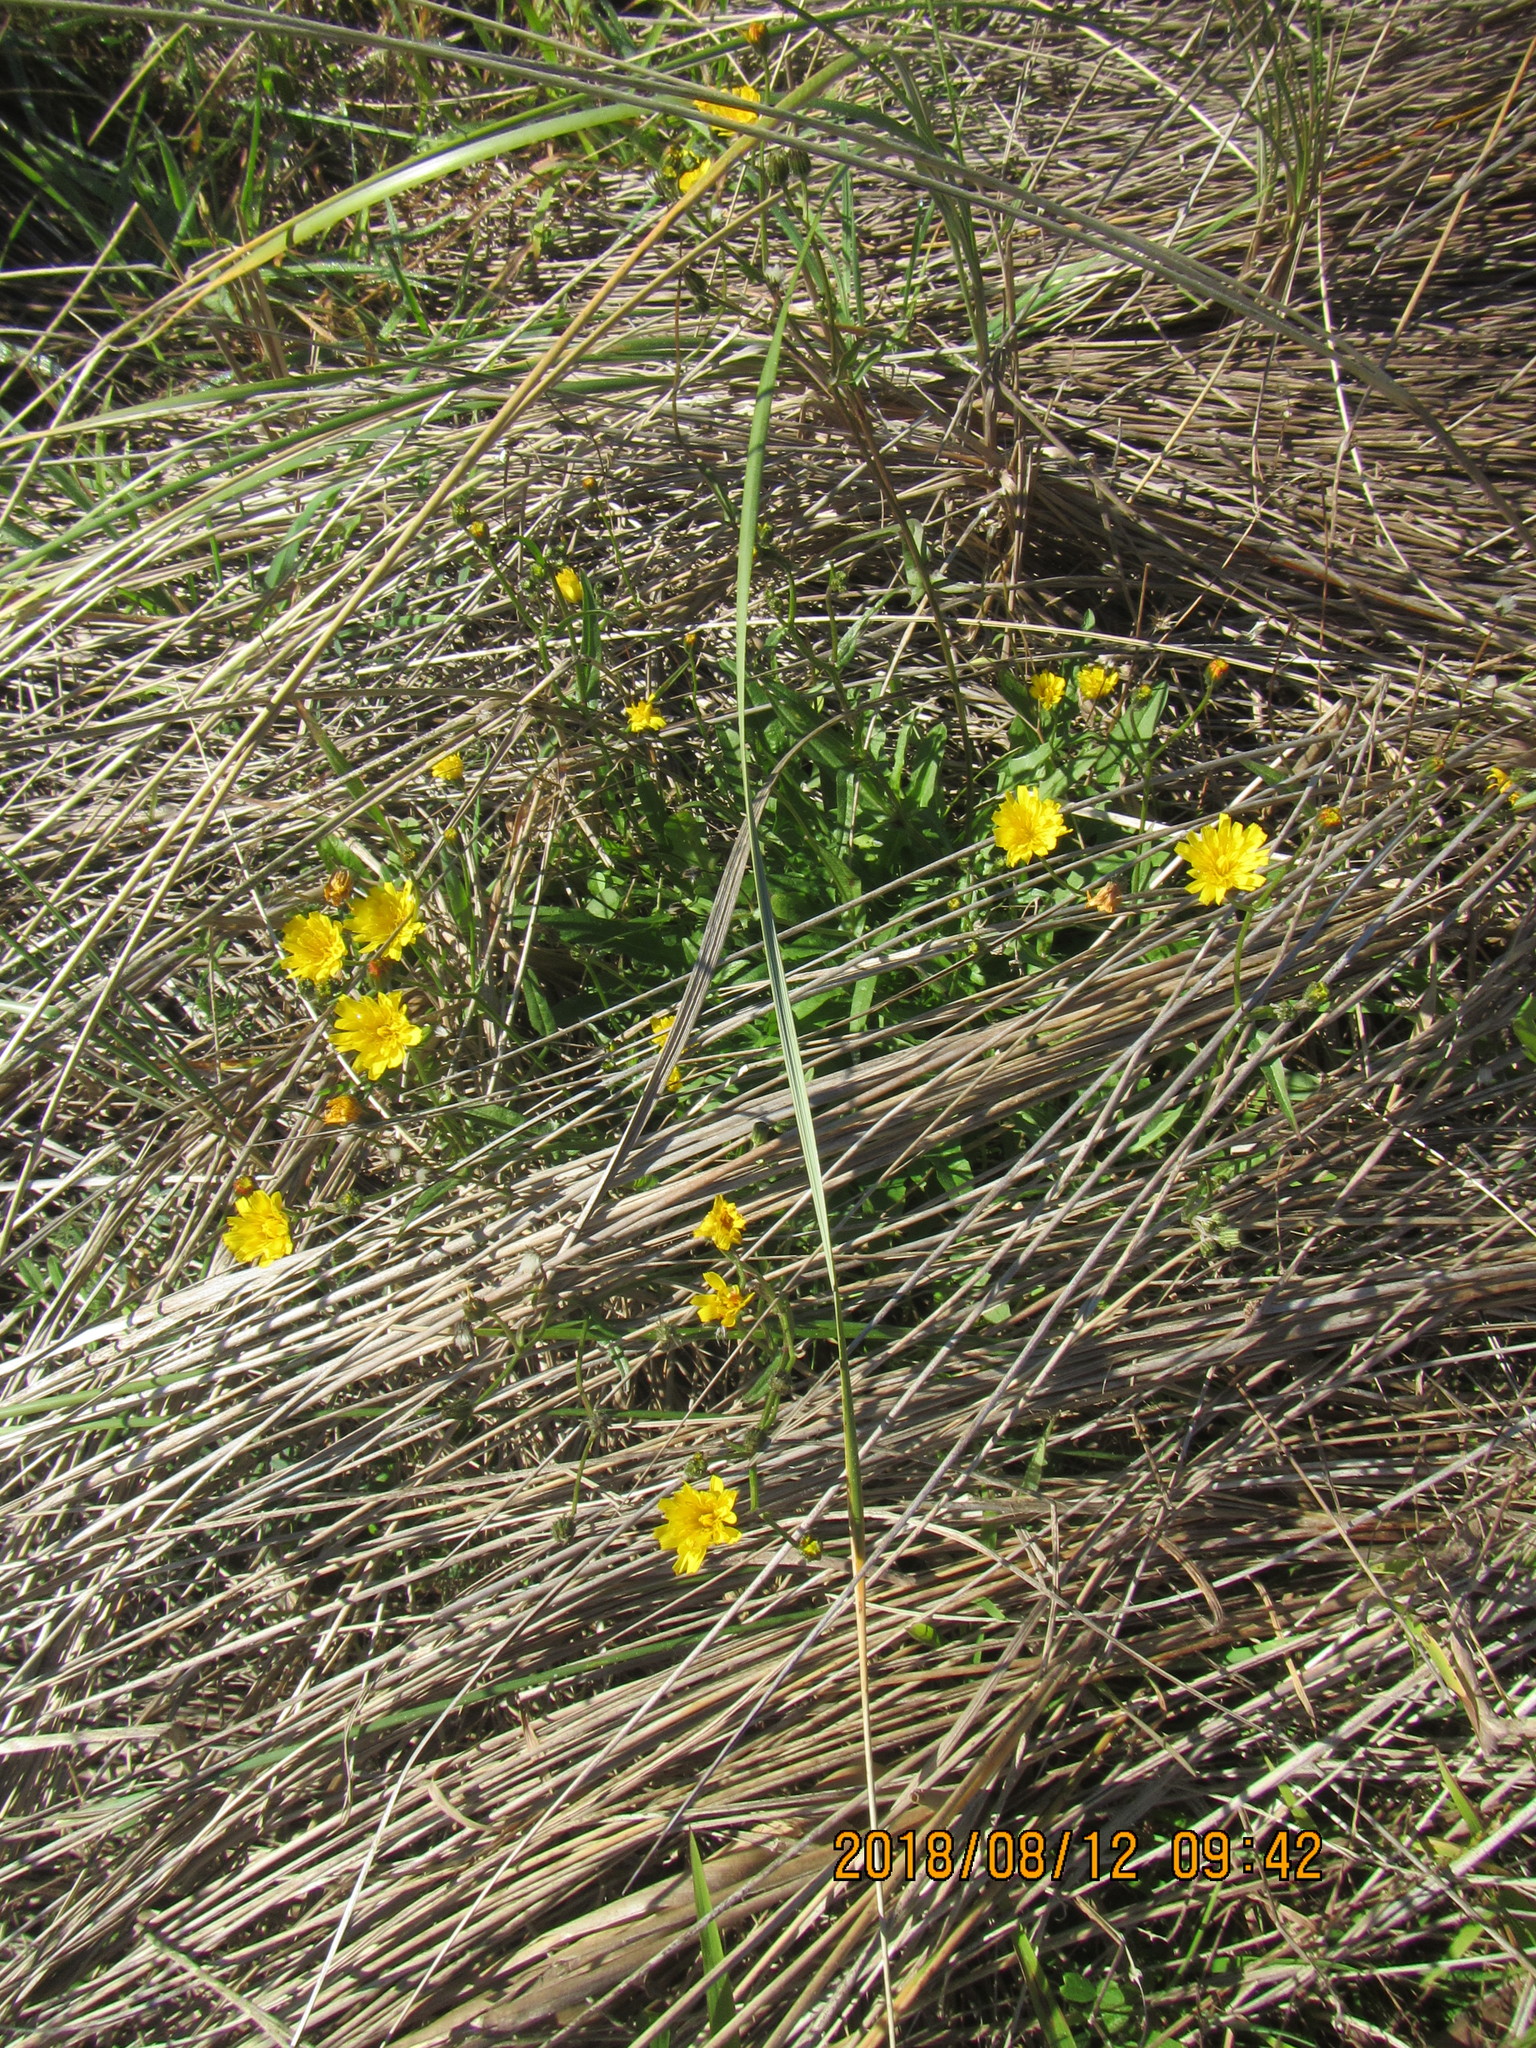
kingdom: Plantae
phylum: Tracheophyta
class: Magnoliopsida
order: Asterales
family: Asteraceae
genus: Senecio
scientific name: Senecio skirrhodon
